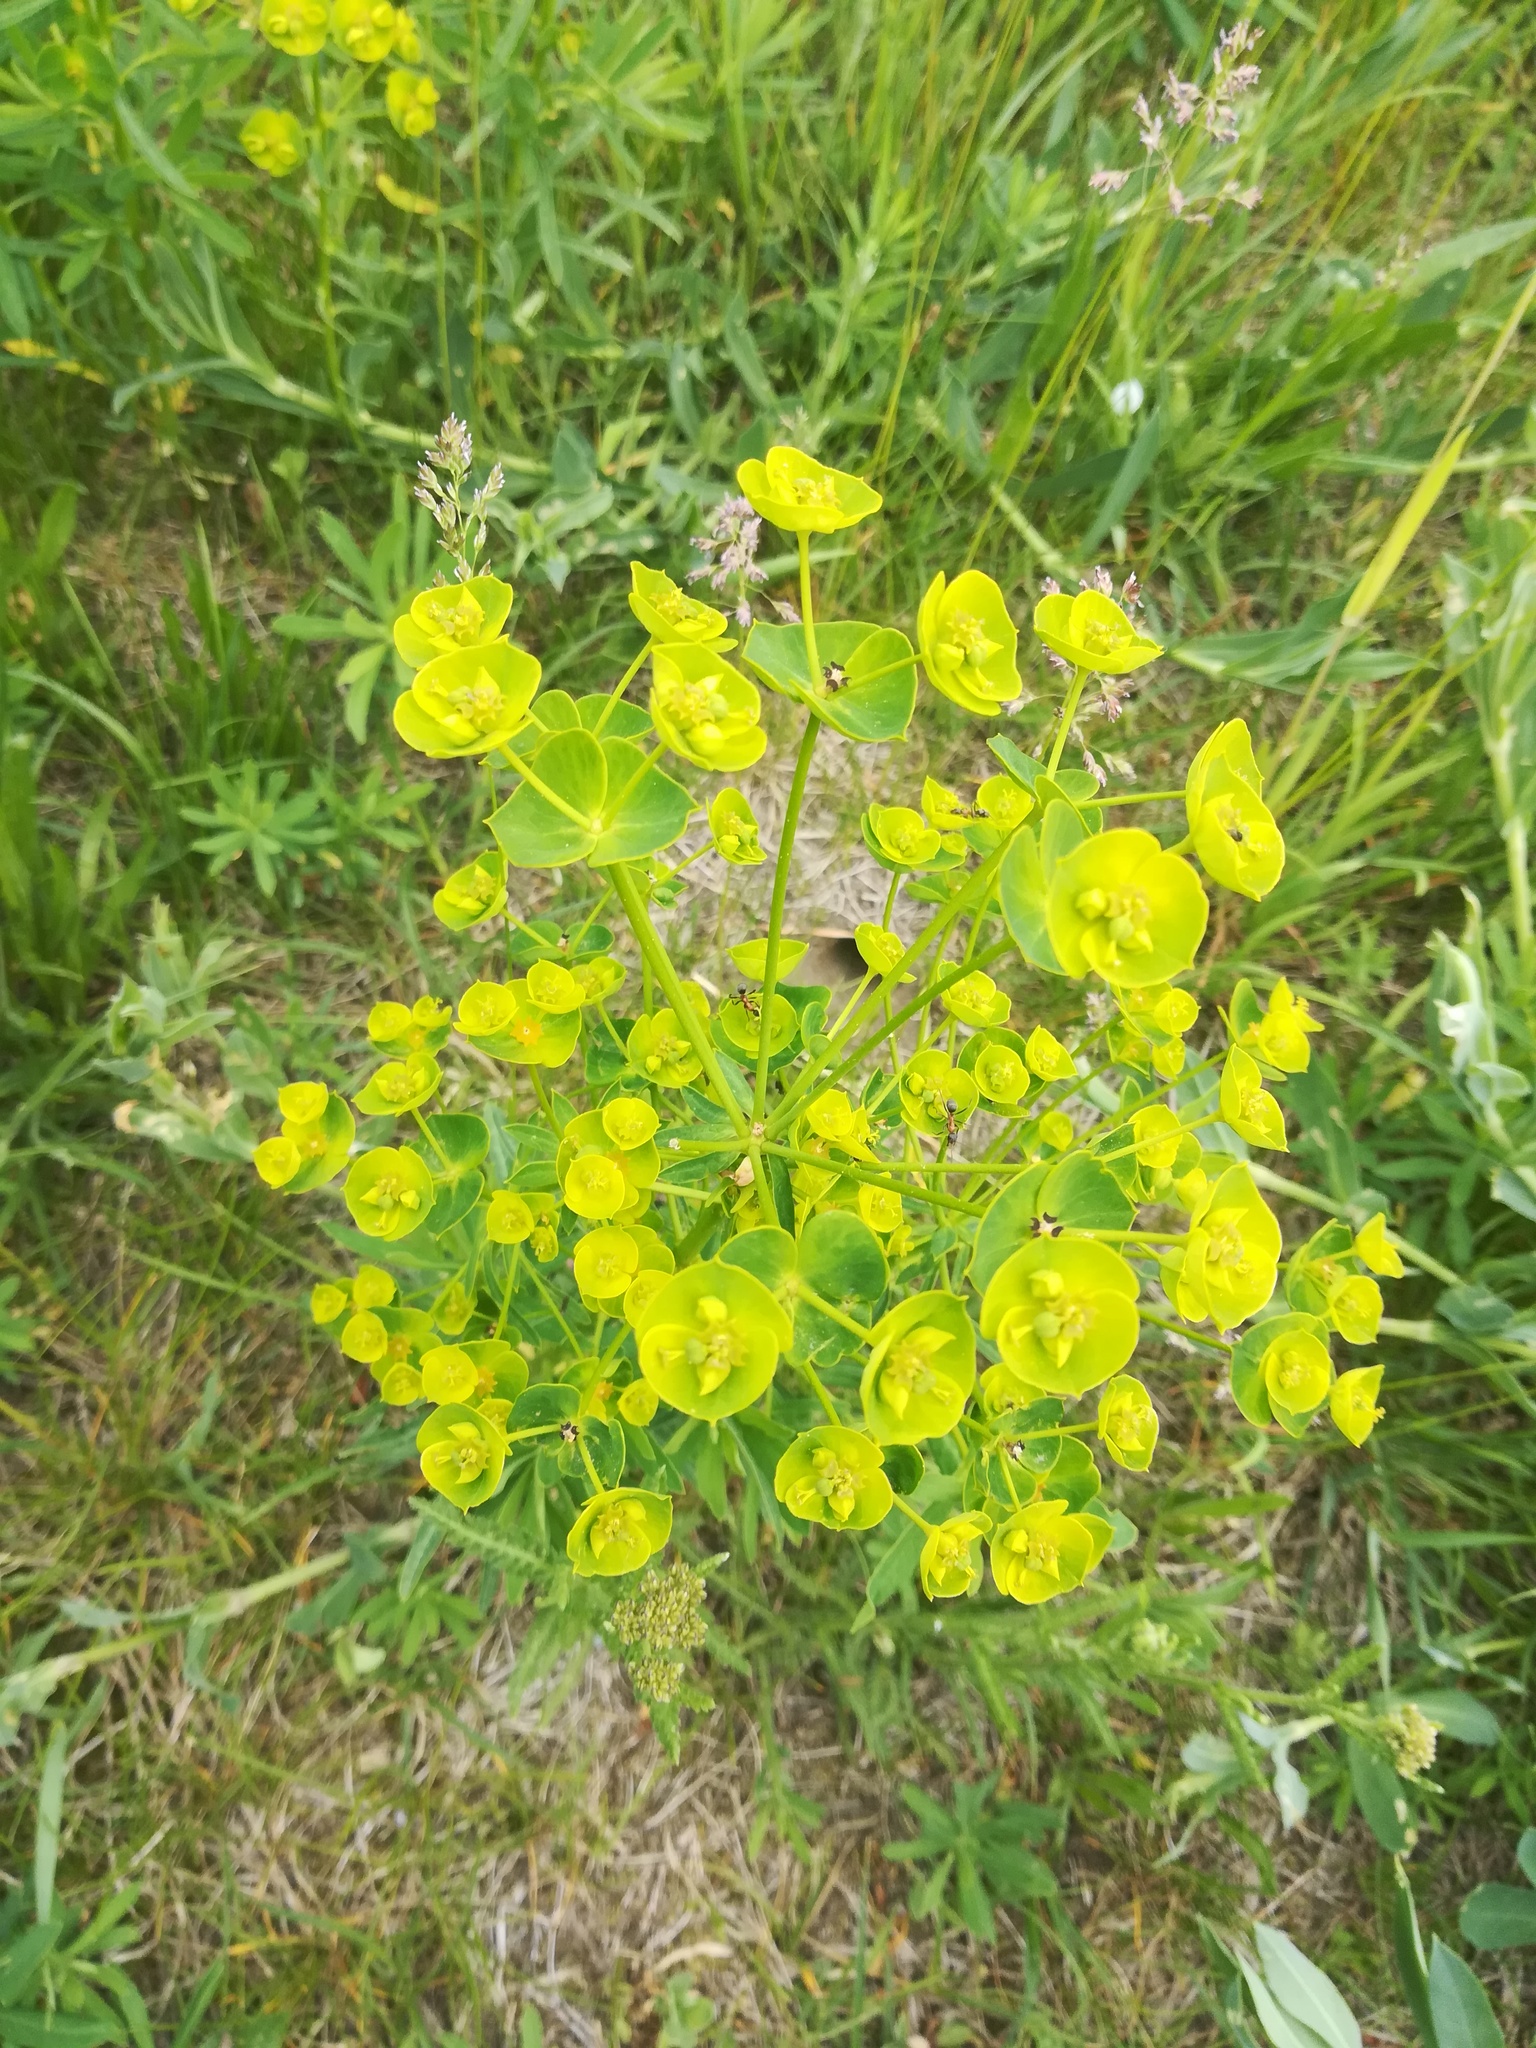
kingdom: Plantae
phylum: Tracheophyta
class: Magnoliopsida
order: Malpighiales
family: Euphorbiaceae
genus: Euphorbia
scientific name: Euphorbia esula
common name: Leafy spurge
